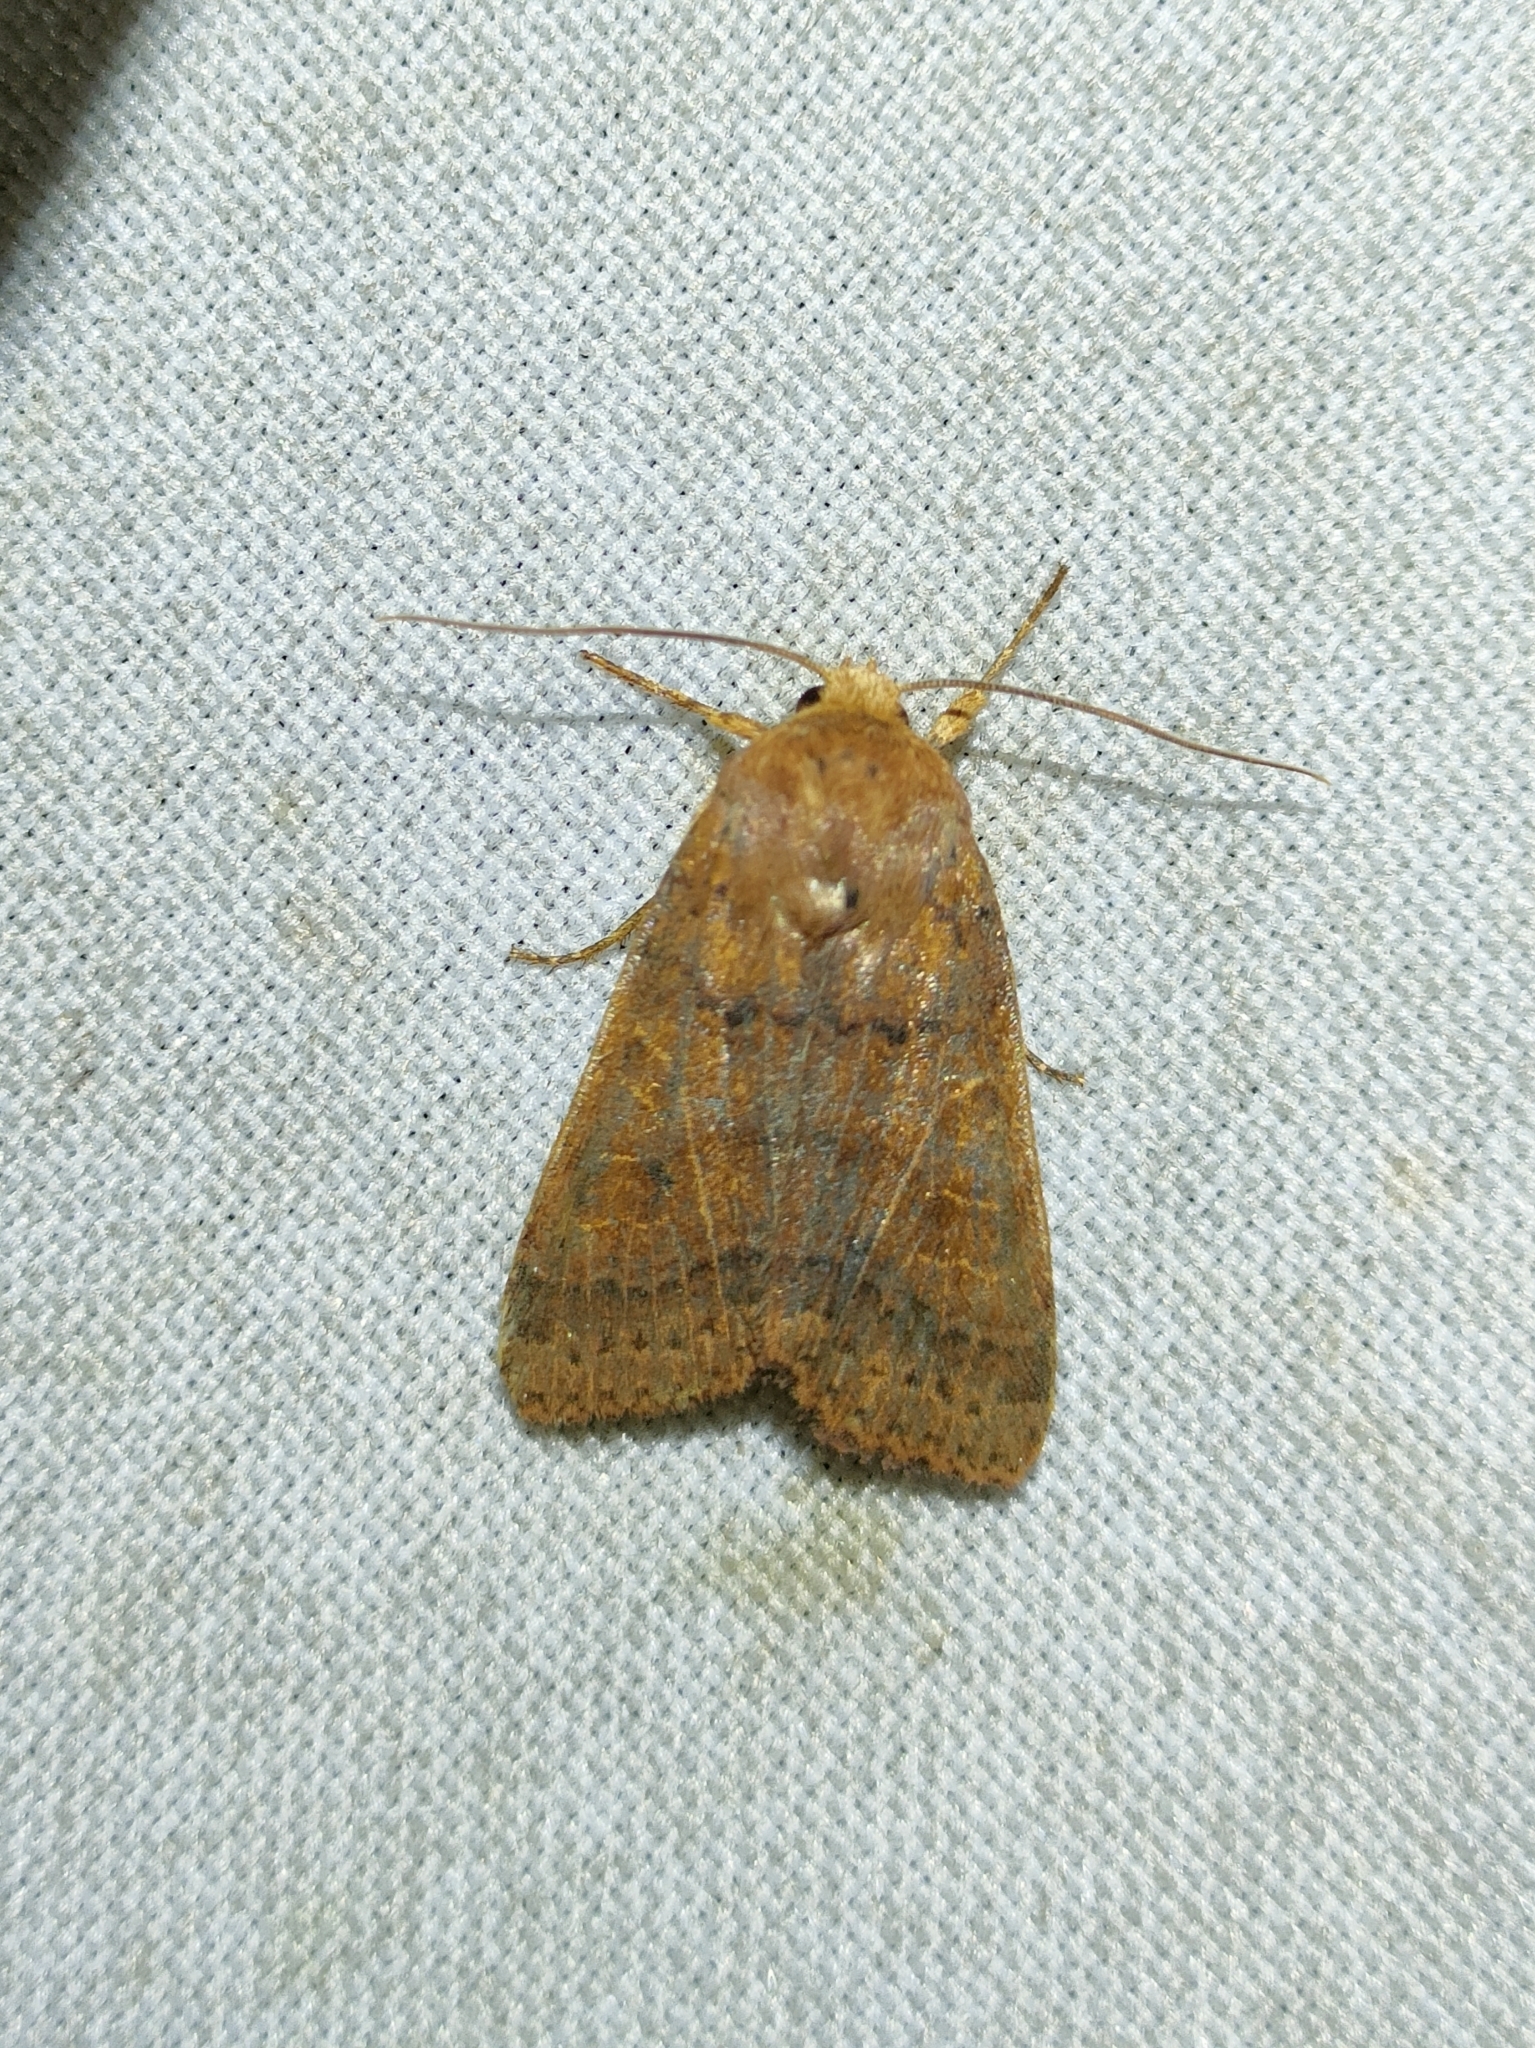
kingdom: Animalia
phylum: Arthropoda
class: Insecta
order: Lepidoptera
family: Noctuidae
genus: Agrochola
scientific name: Agrochola pistacinoides
